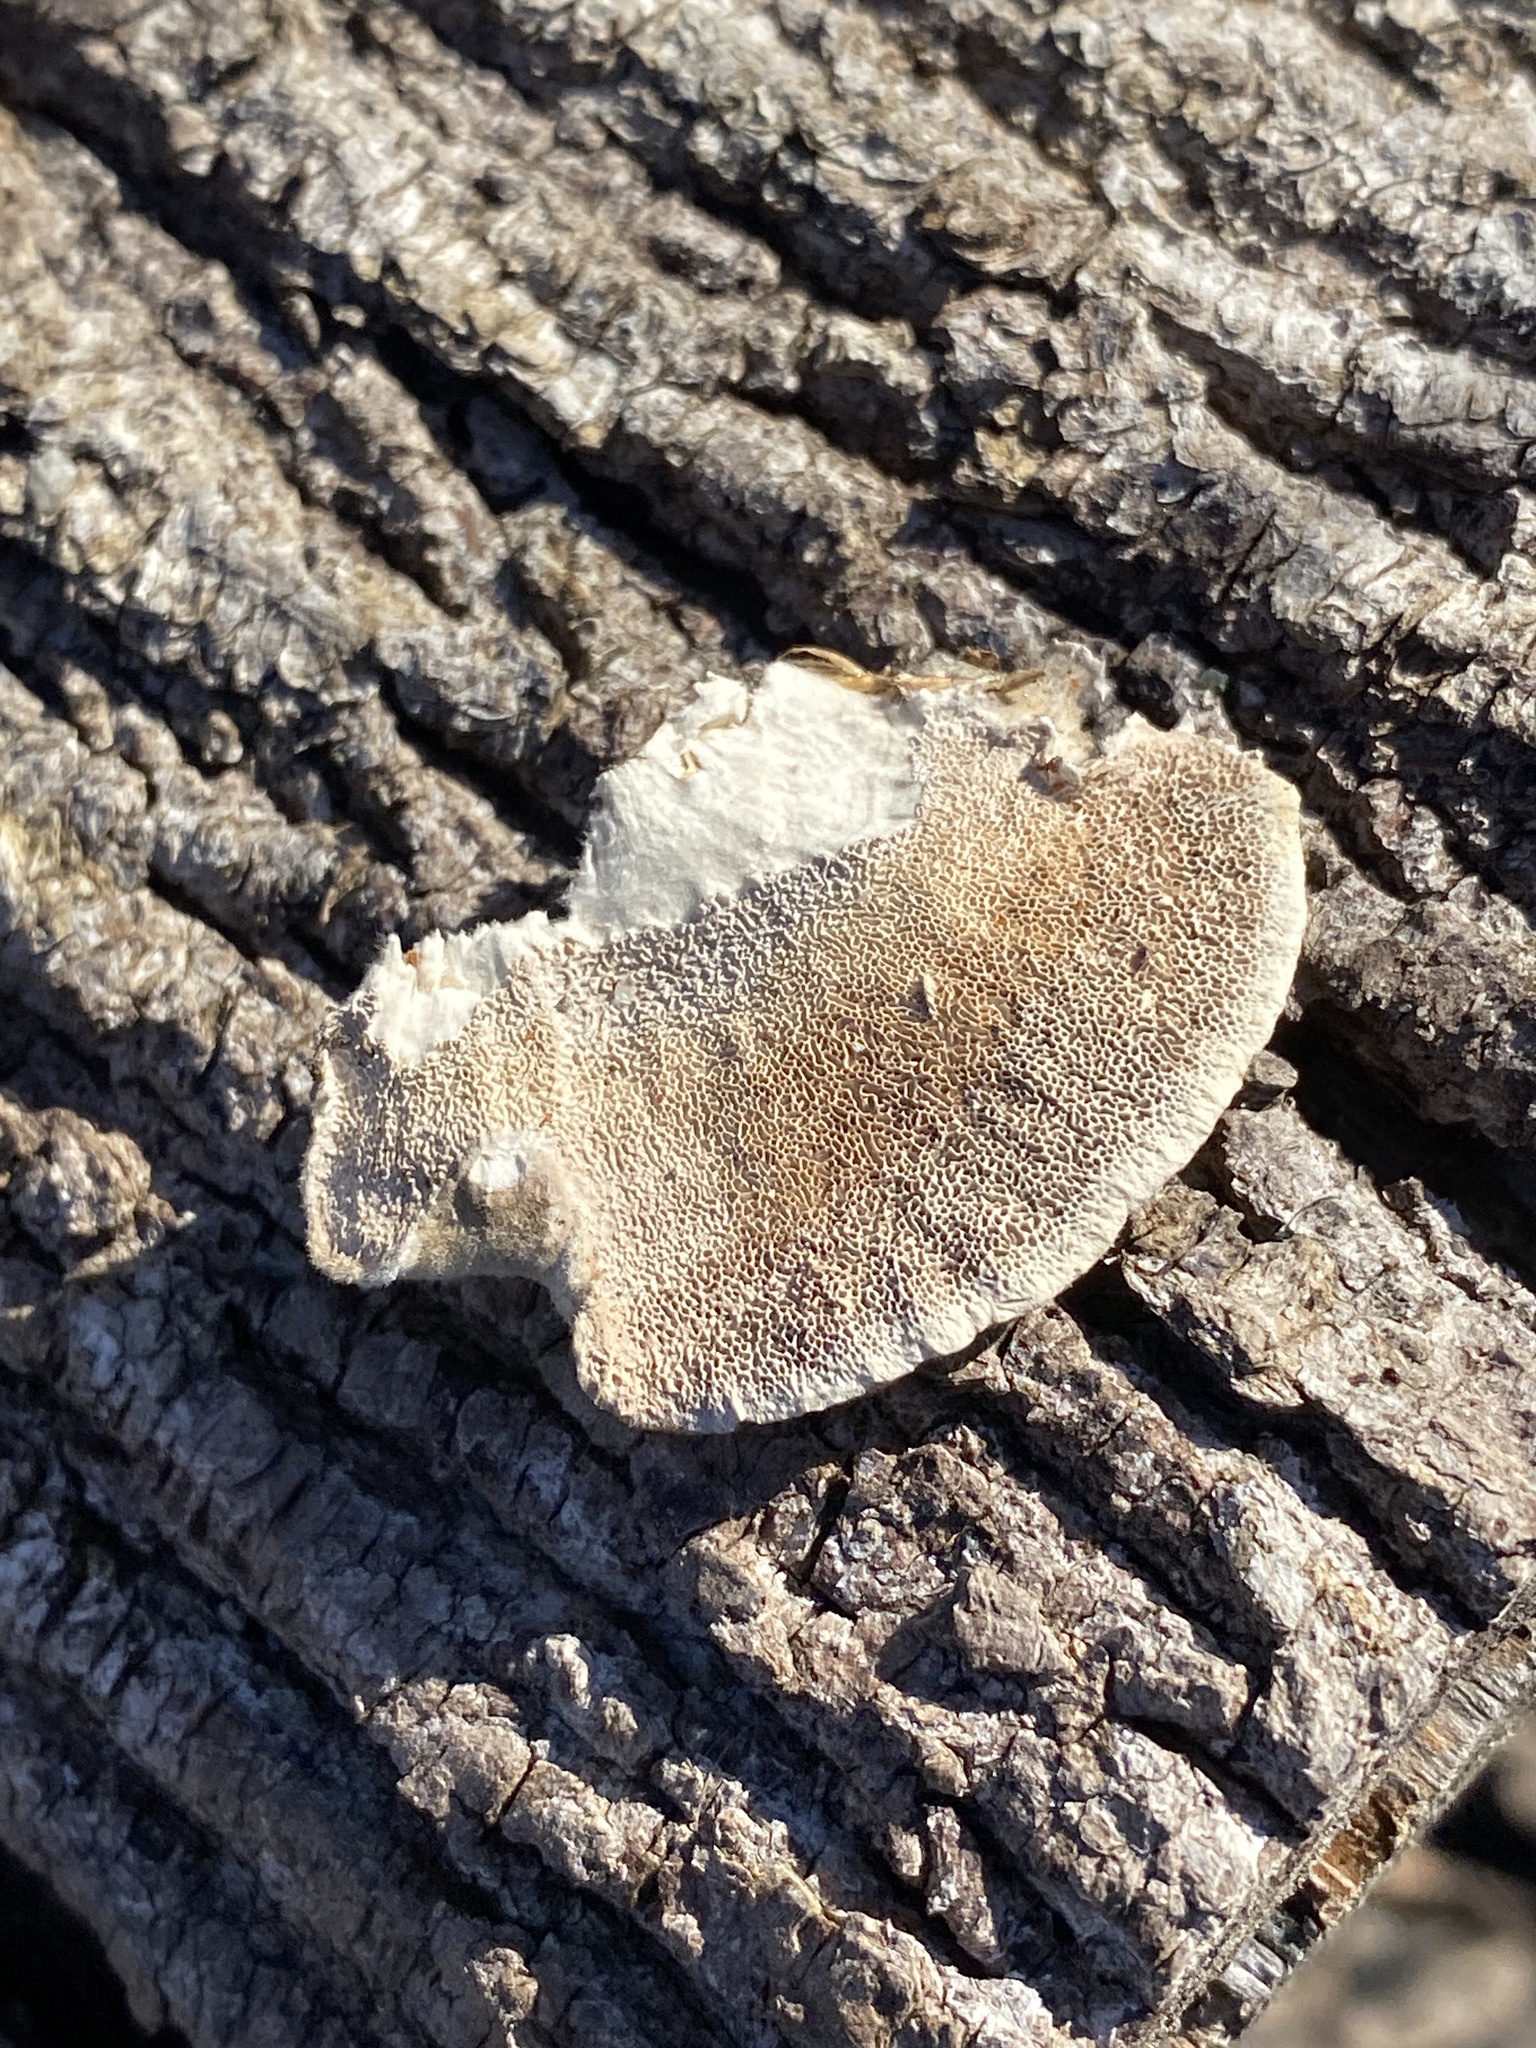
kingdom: Fungi
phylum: Basidiomycota
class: Agaricomycetes
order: Polyporales
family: Polyporaceae
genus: Trametes
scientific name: Trametes hirsuta
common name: Hairy bracket
